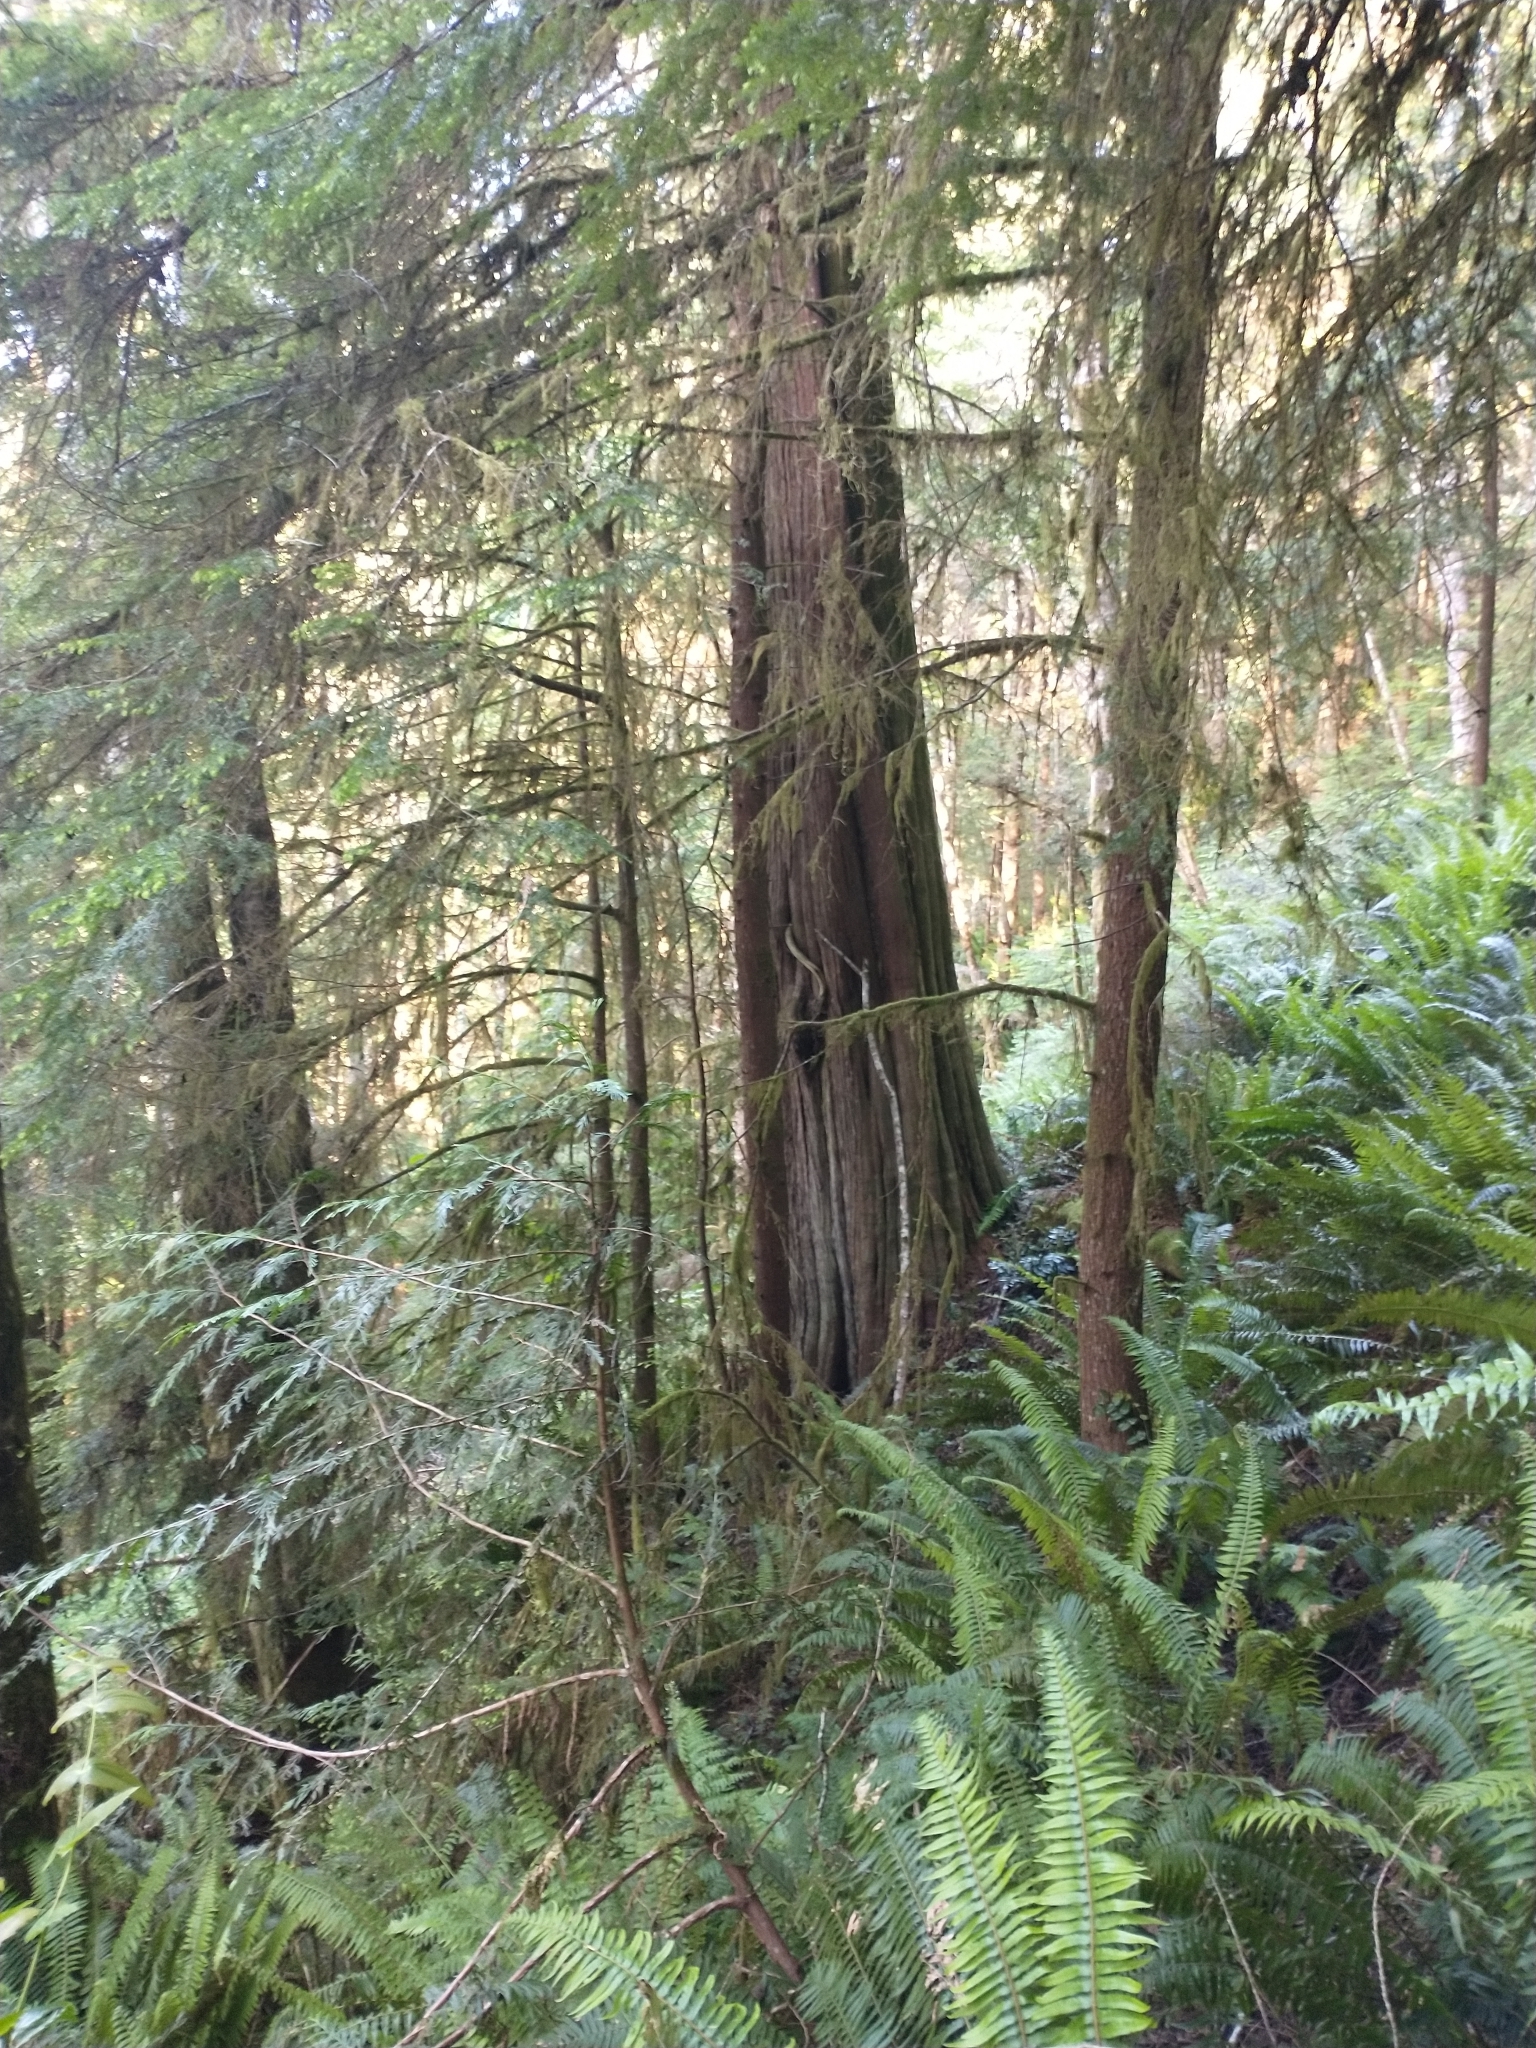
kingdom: Plantae
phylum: Tracheophyta
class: Pinopsida
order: Pinales
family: Cupressaceae
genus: Thuja
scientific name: Thuja plicata
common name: Western red-cedar
